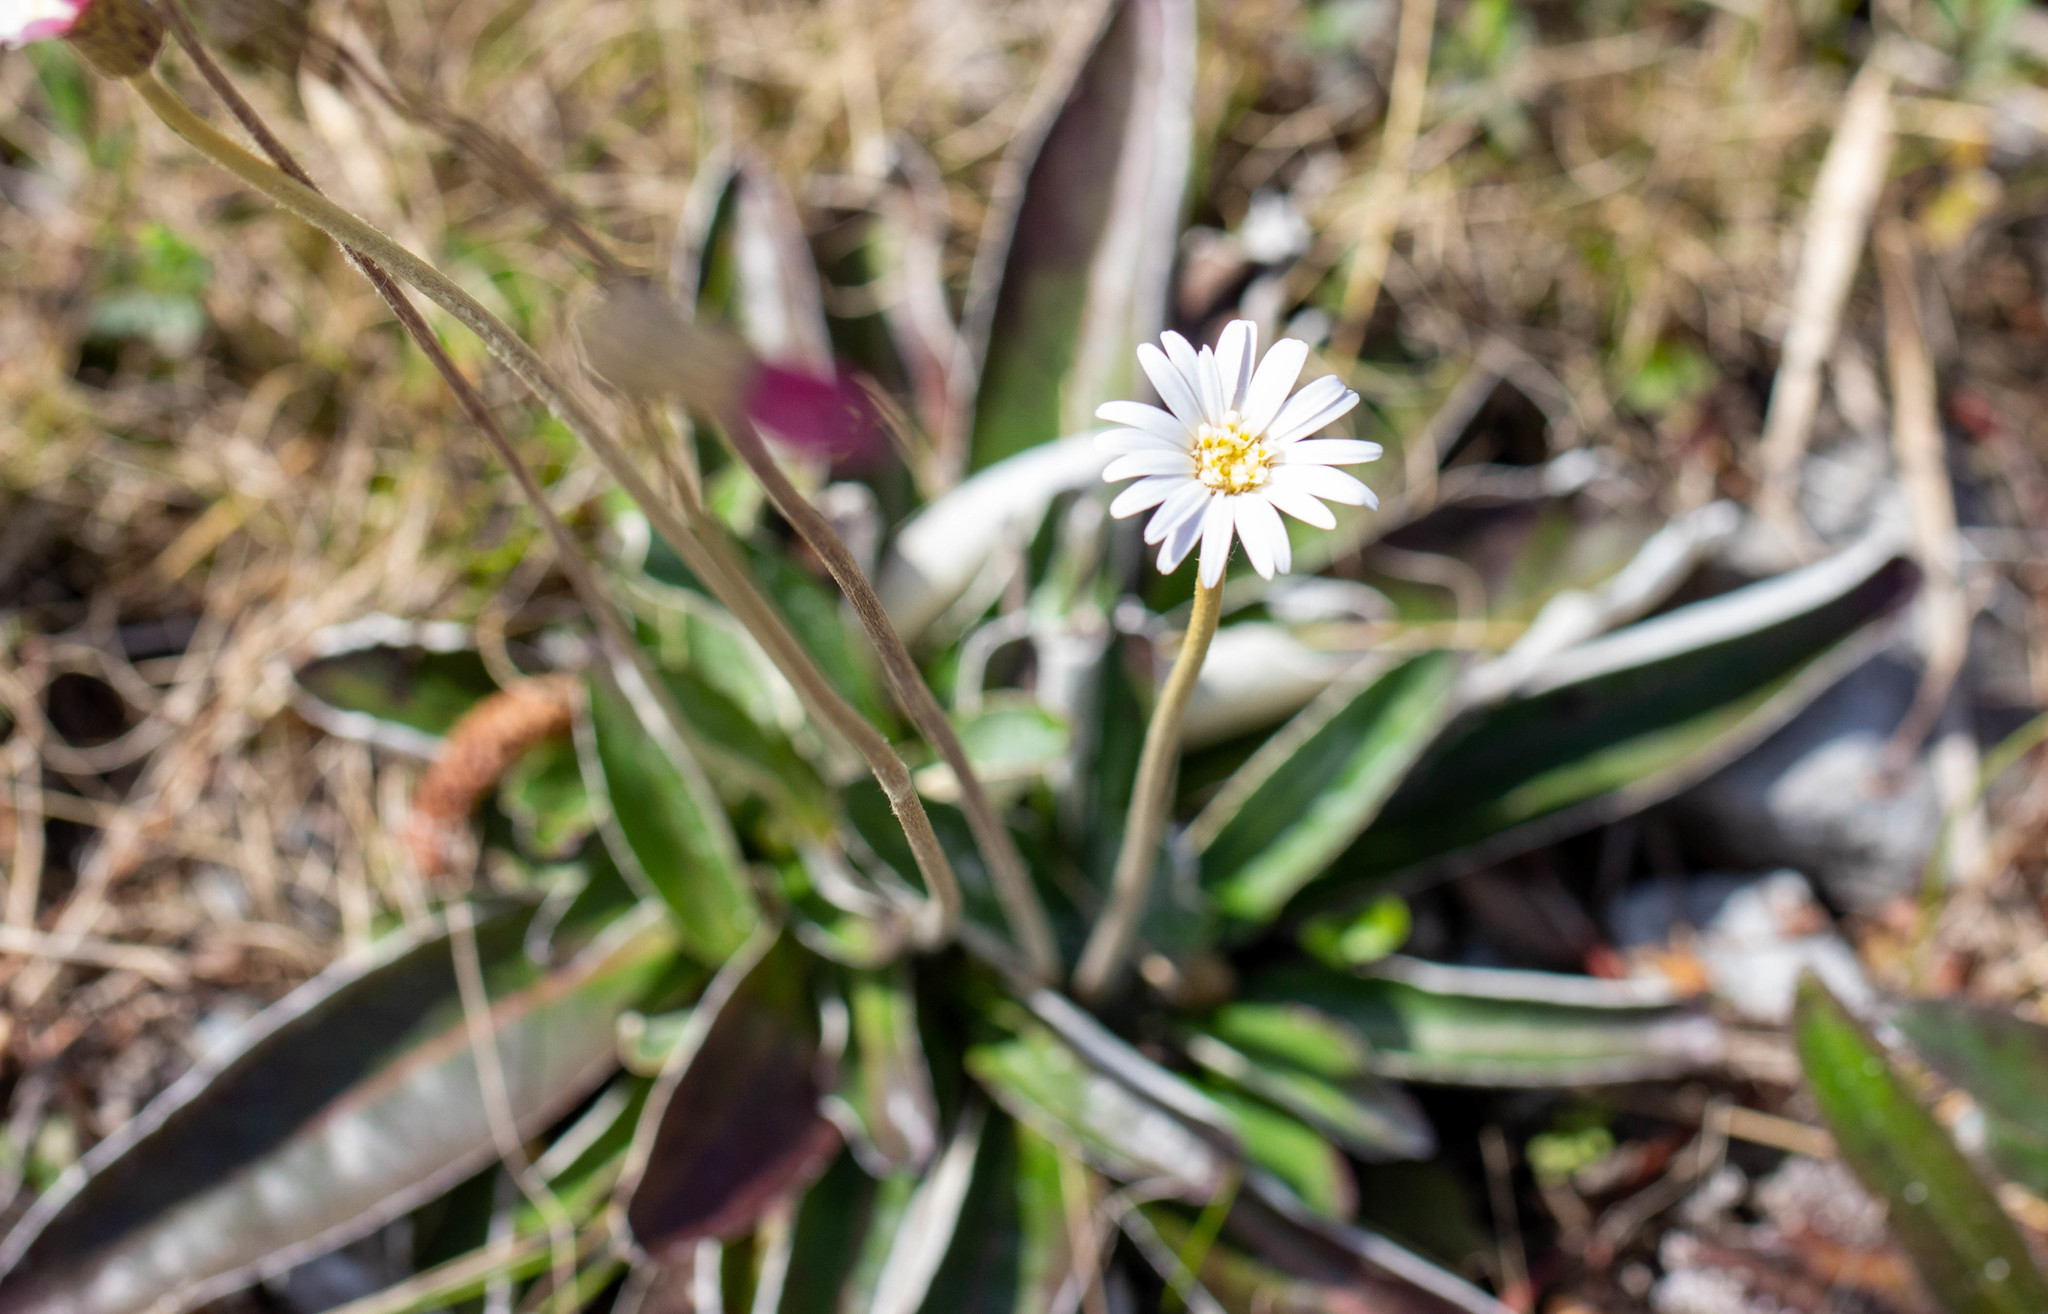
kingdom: Plantae
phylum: Tracheophyta
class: Magnoliopsida
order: Asterales
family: Asteraceae
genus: Chaptalia
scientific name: Chaptalia tomentosa
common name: Woolly sunbonnet
